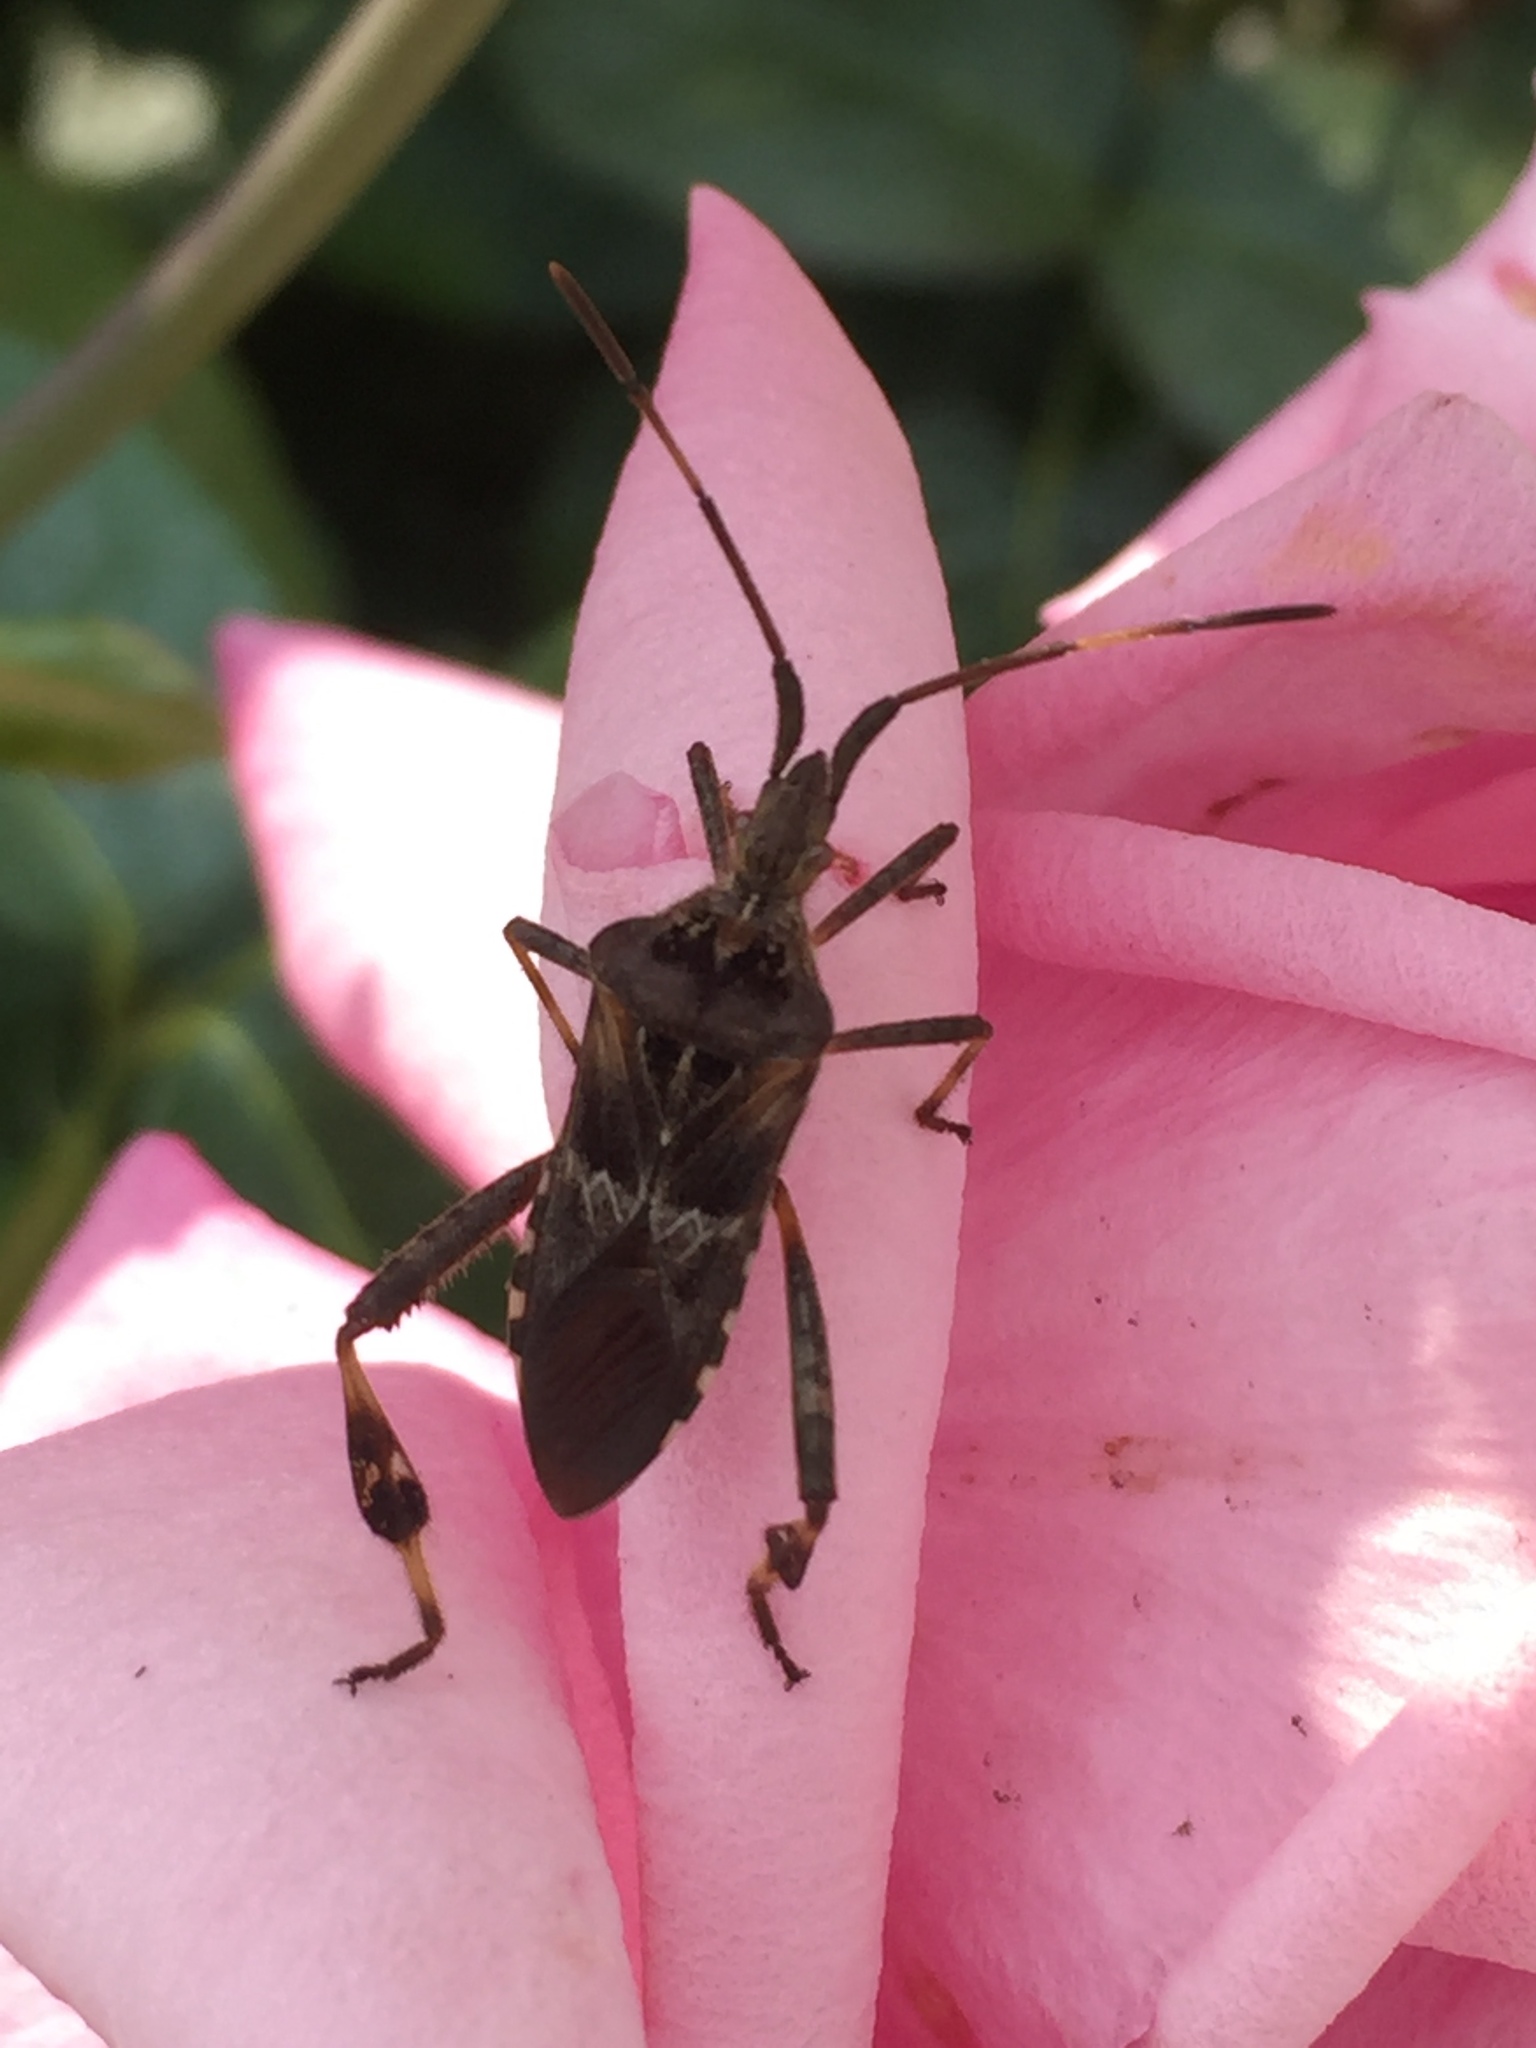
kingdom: Animalia
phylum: Arthropoda
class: Insecta
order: Hemiptera
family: Coreidae
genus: Leptoglossus
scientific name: Leptoglossus occidentalis
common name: Western conifer-seed bug
